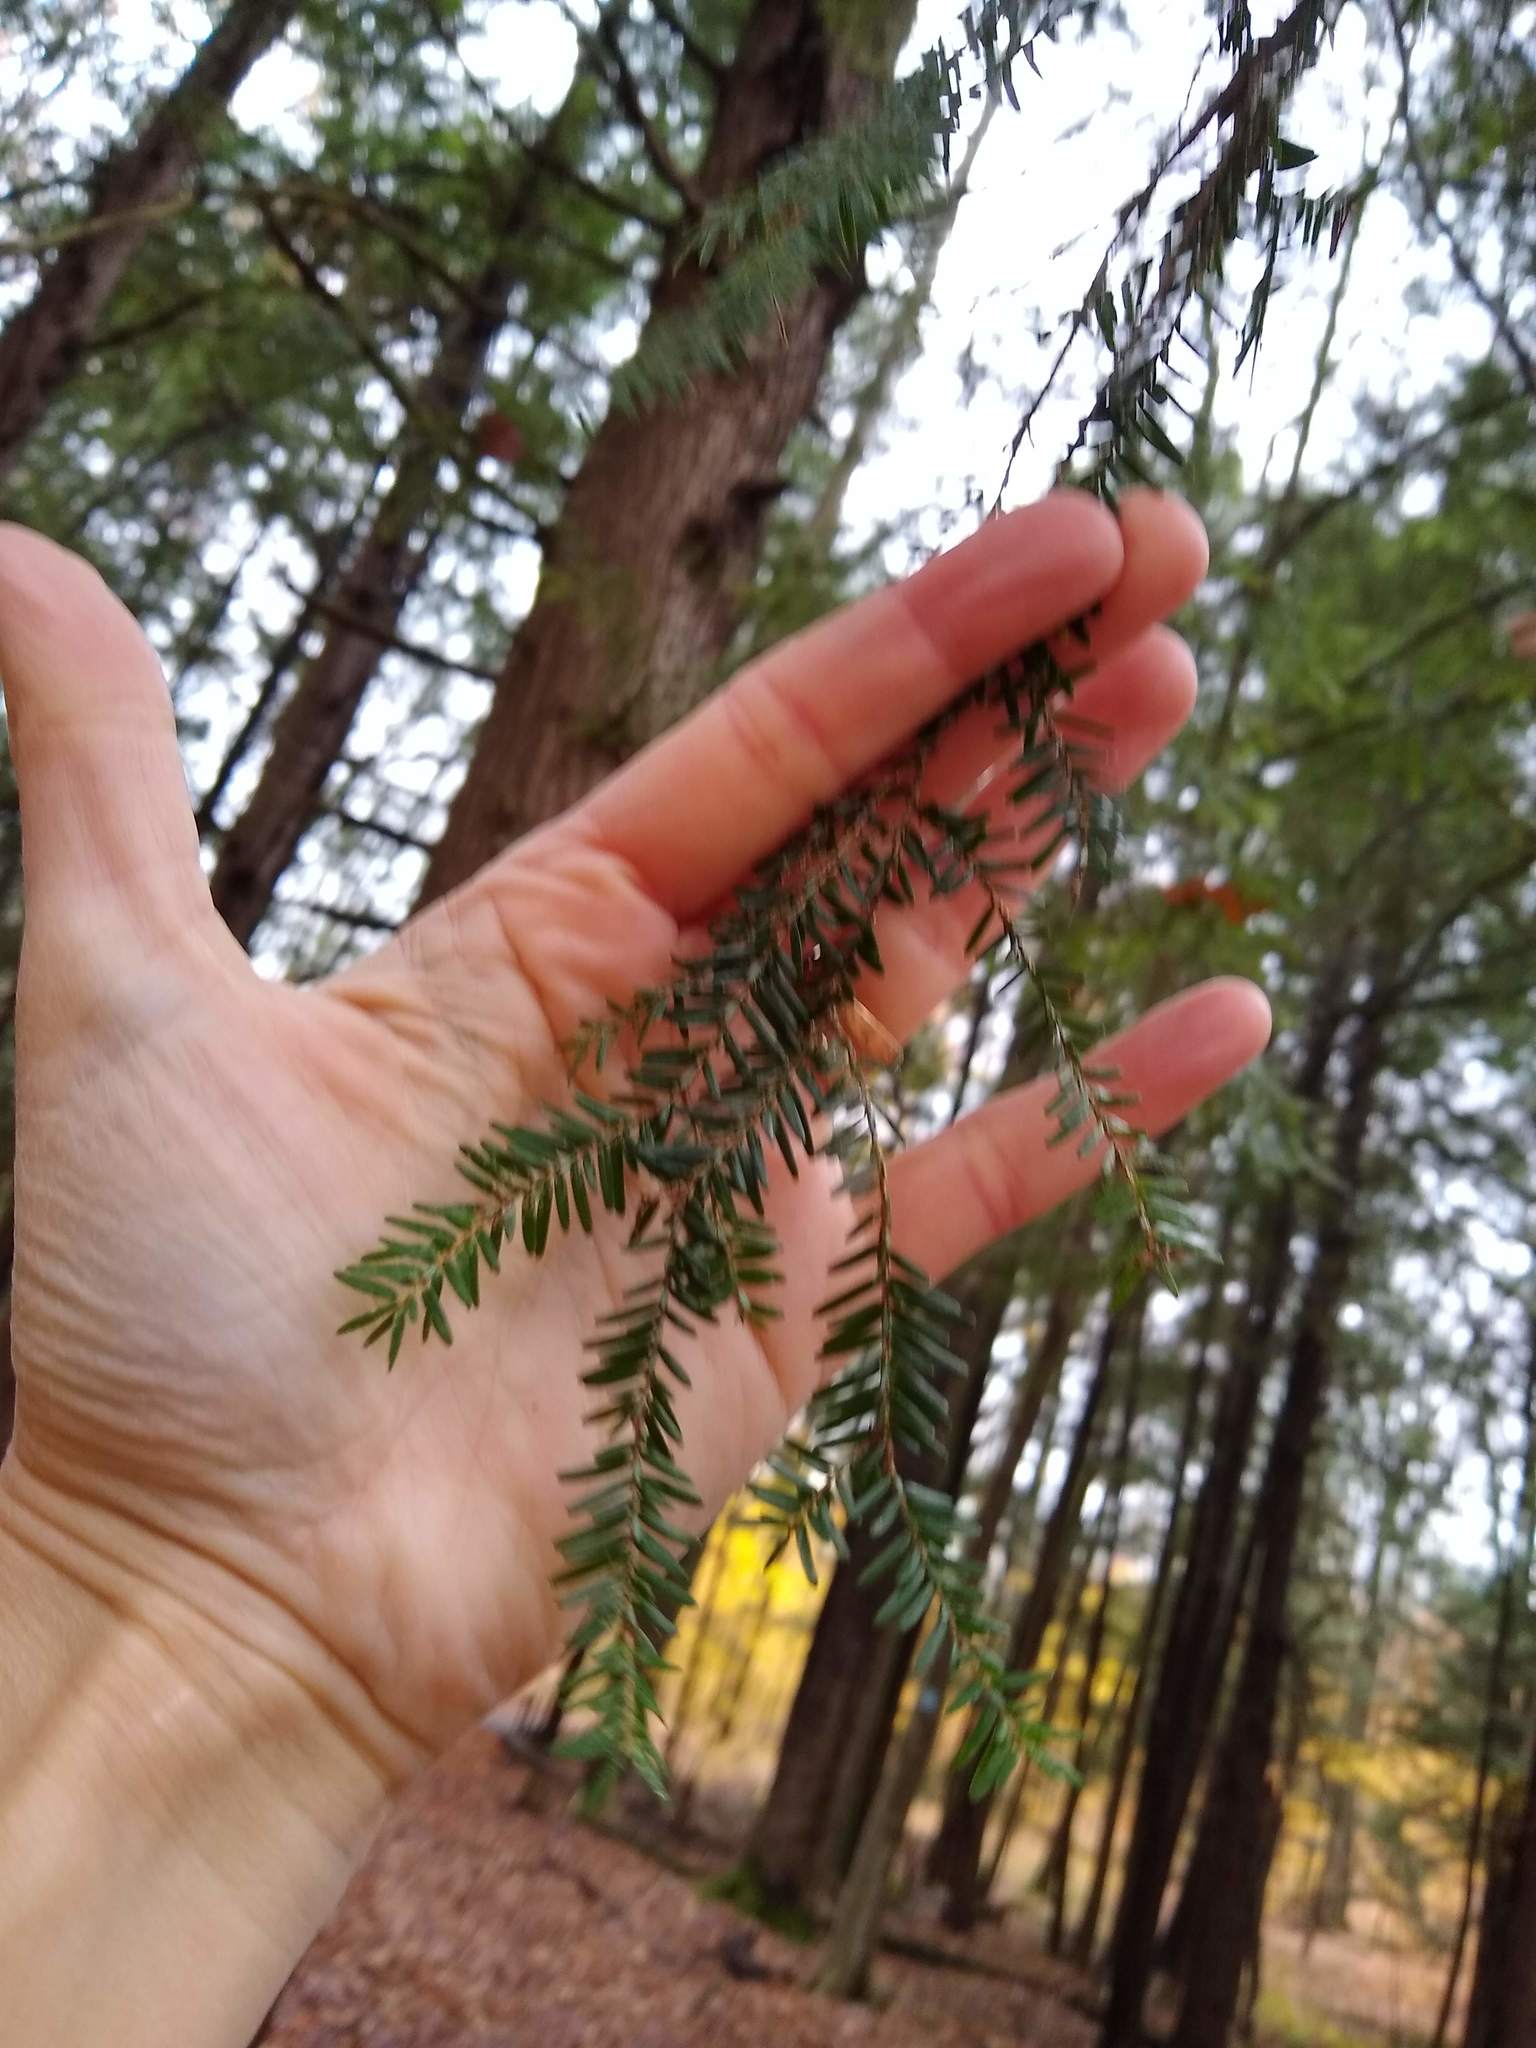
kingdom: Plantae
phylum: Tracheophyta
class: Pinopsida
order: Pinales
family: Pinaceae
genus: Tsuga
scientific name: Tsuga canadensis
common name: Eastern hemlock
